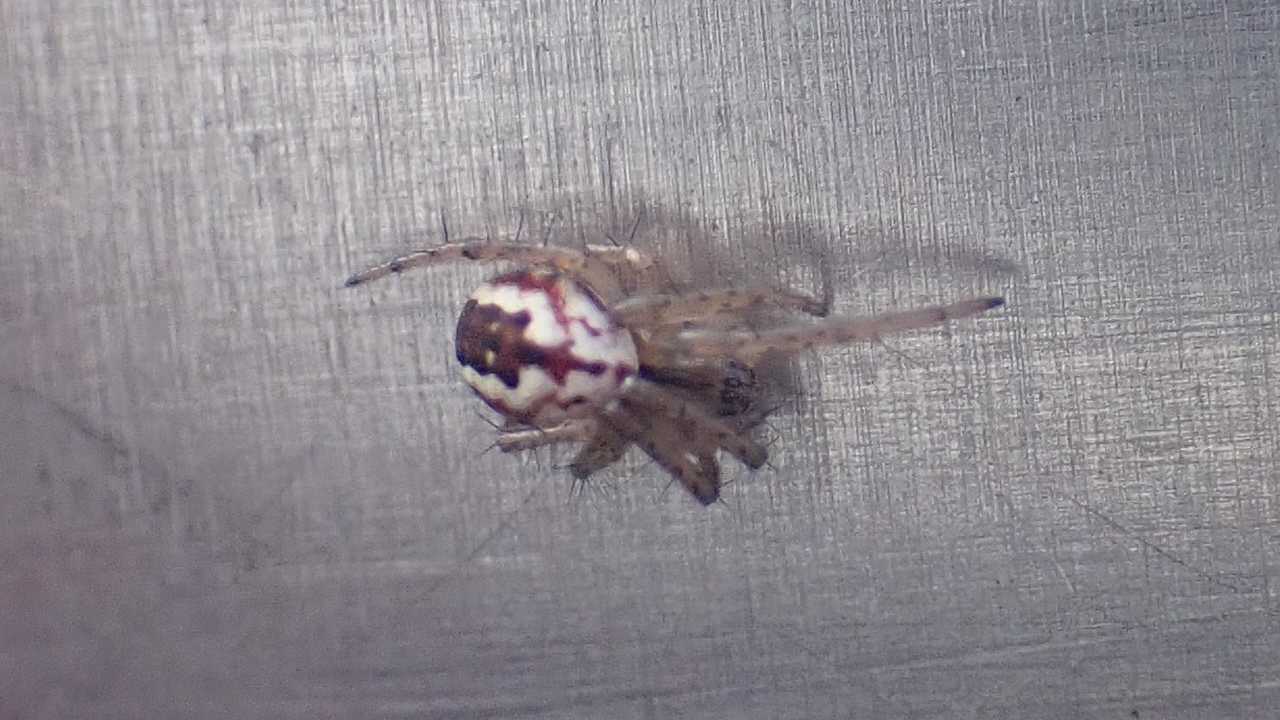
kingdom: Animalia
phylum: Arthropoda
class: Arachnida
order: Araneae
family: Araneidae
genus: Mangora
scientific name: Mangora acalypha
